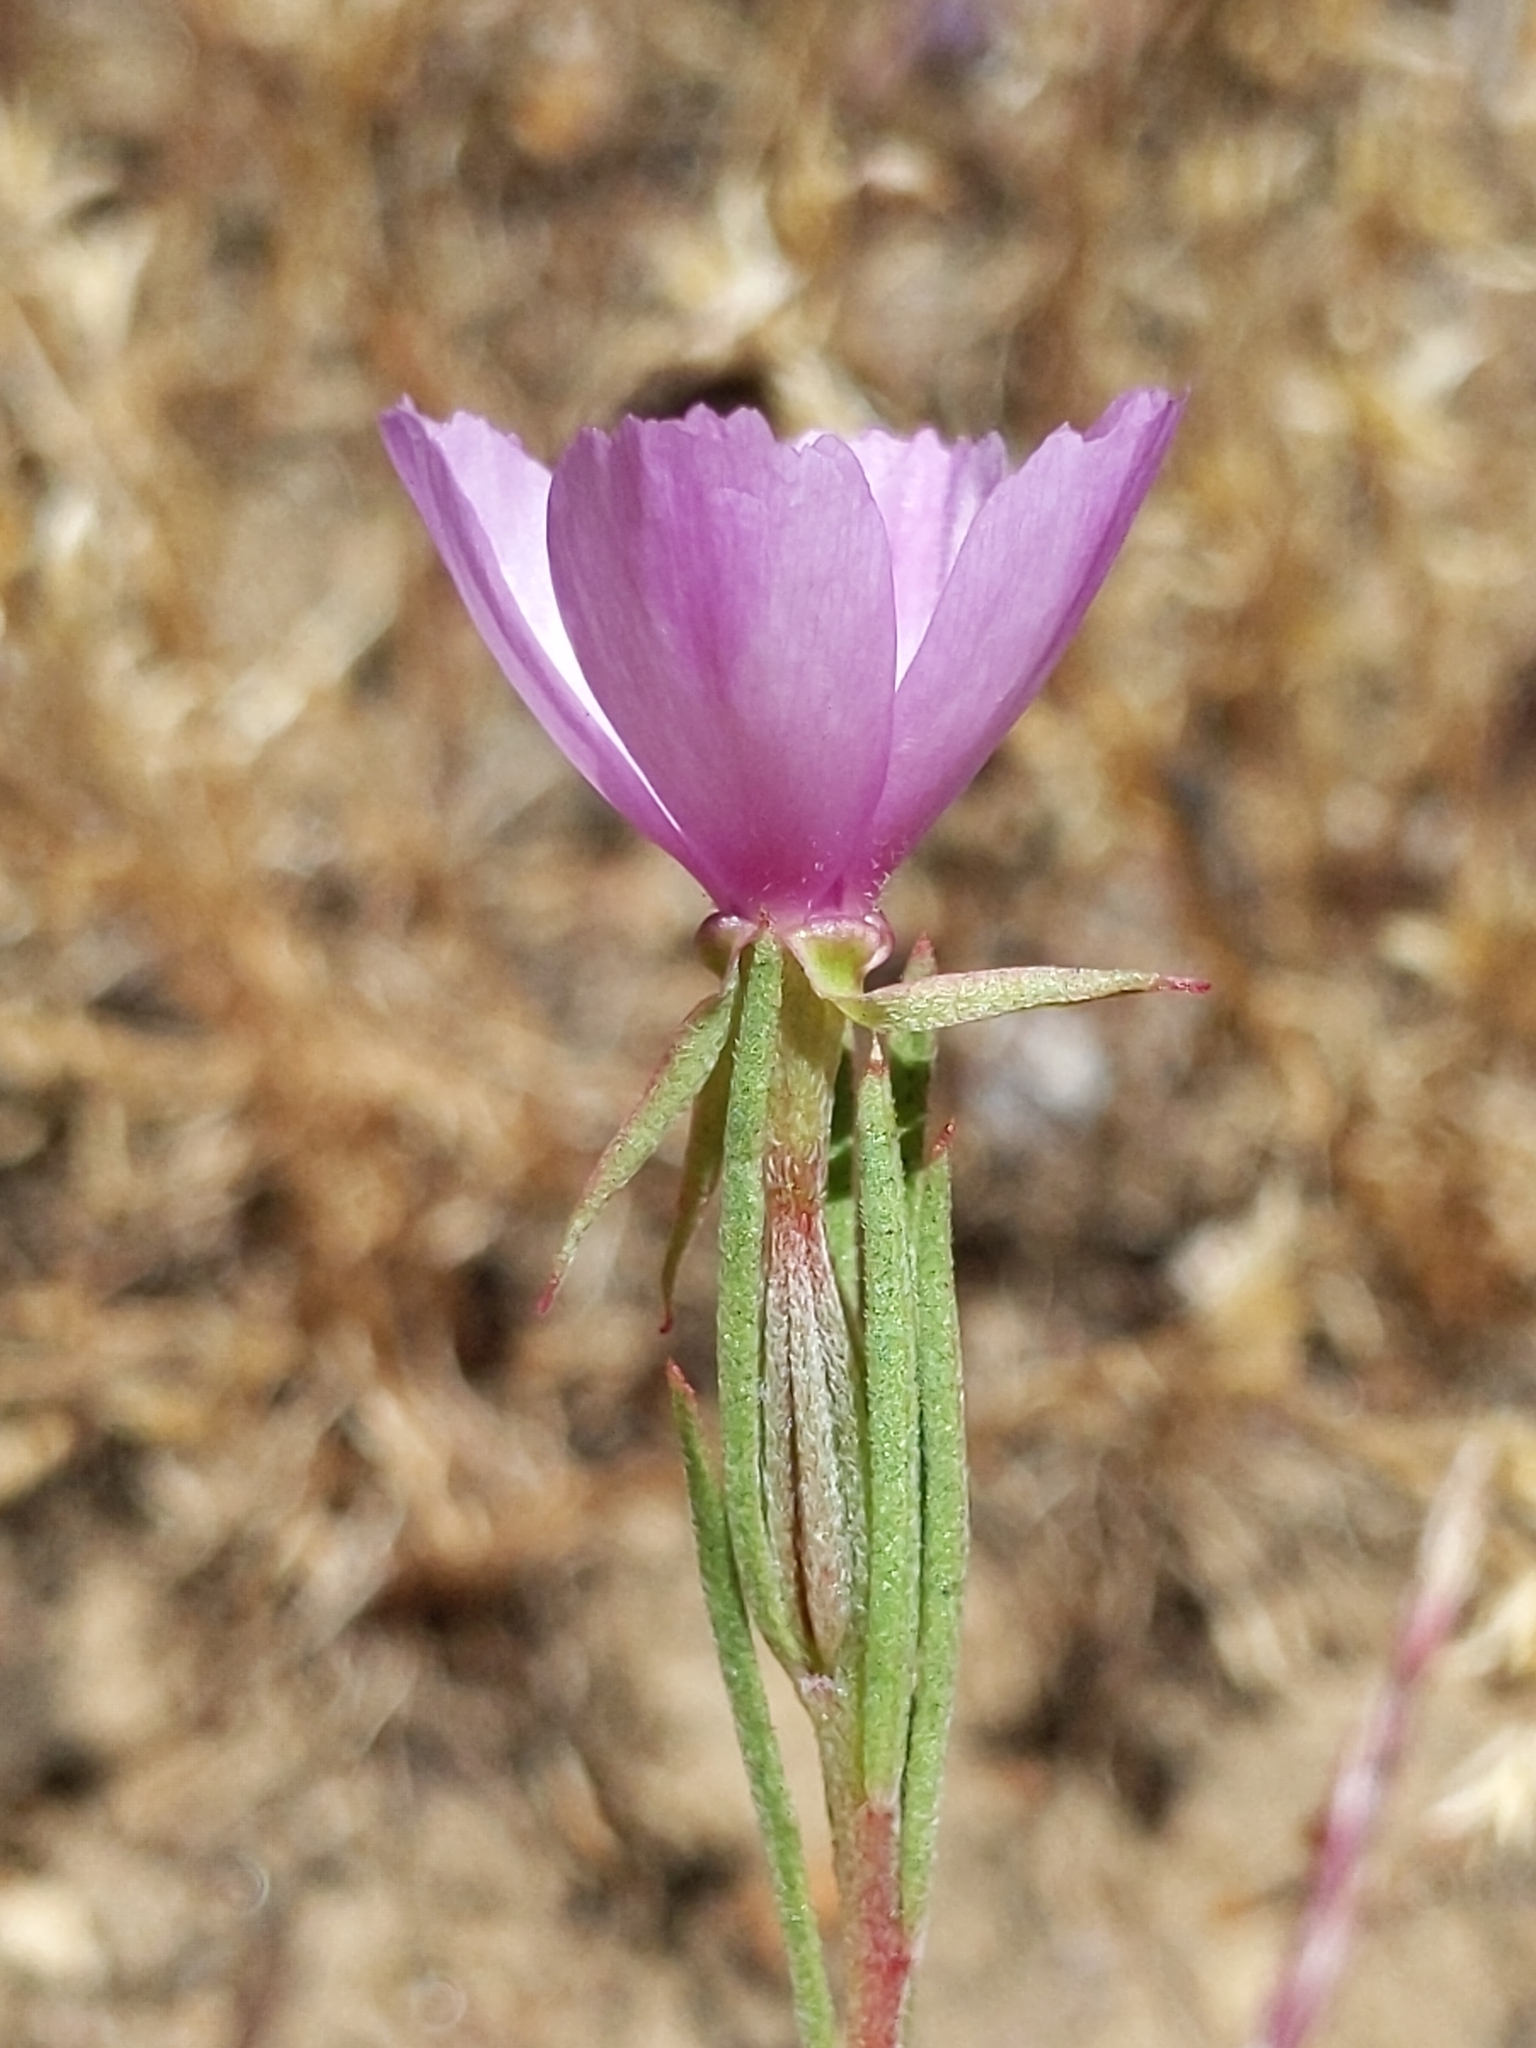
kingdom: Plantae
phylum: Tracheophyta
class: Magnoliopsida
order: Myrtales
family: Onagraceae
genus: Clarkia
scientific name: Clarkia purpurea
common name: Purple clarkia
